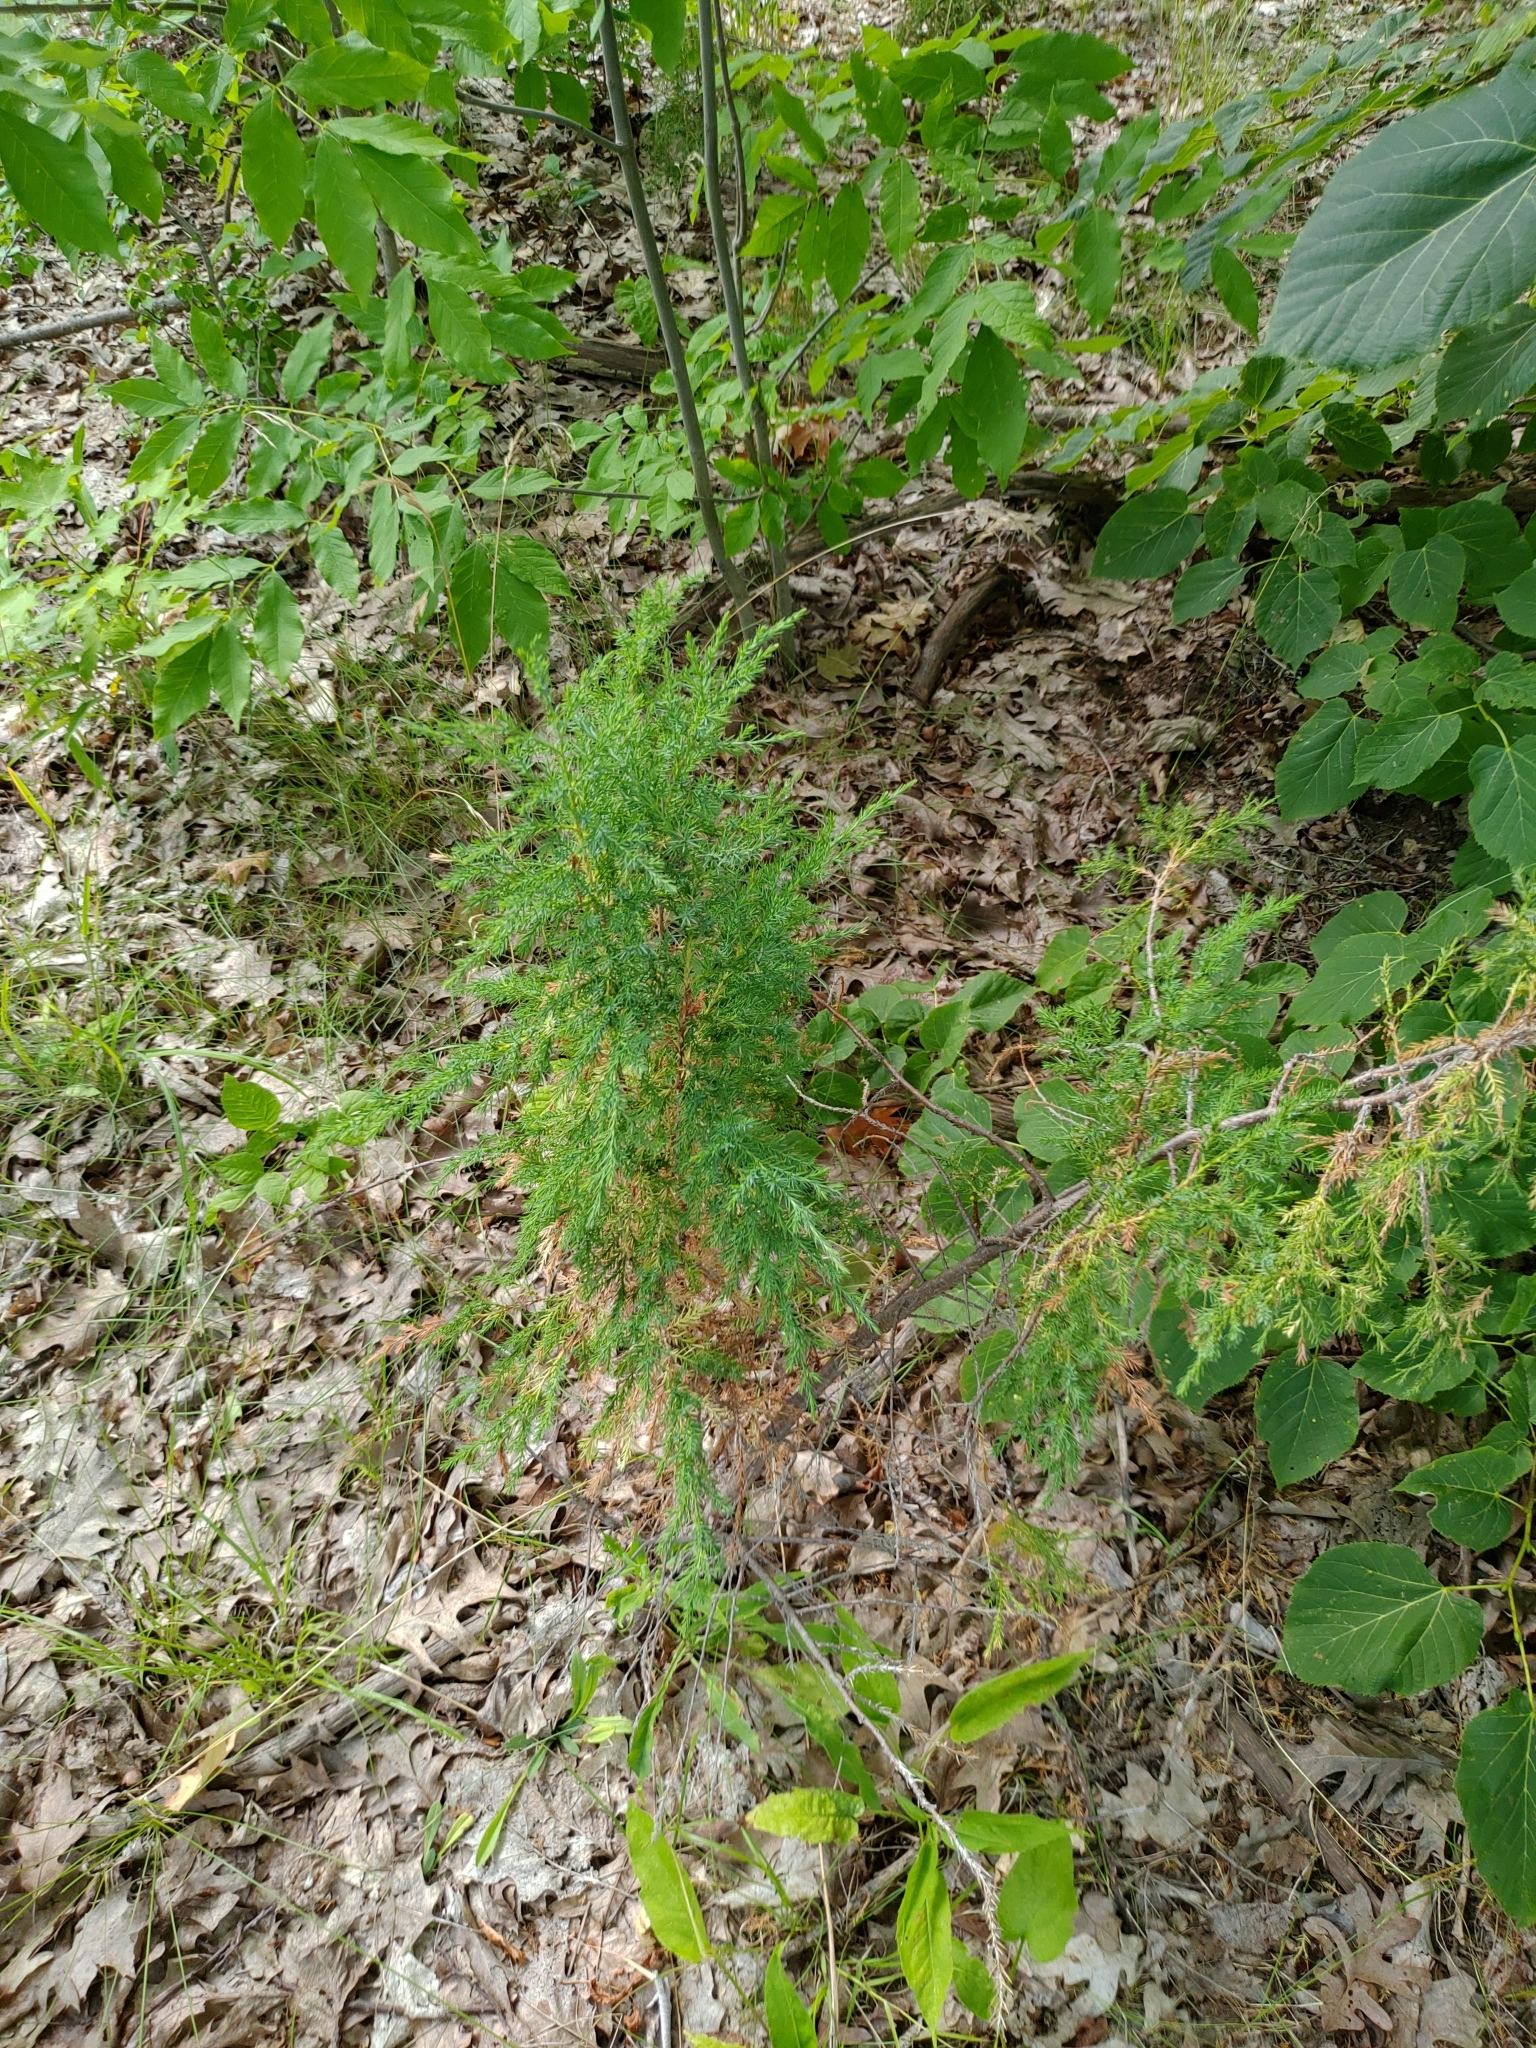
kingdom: Plantae
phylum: Tracheophyta
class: Pinopsida
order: Pinales
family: Cupressaceae
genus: Juniperus
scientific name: Juniperus virginiana
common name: Red juniper
